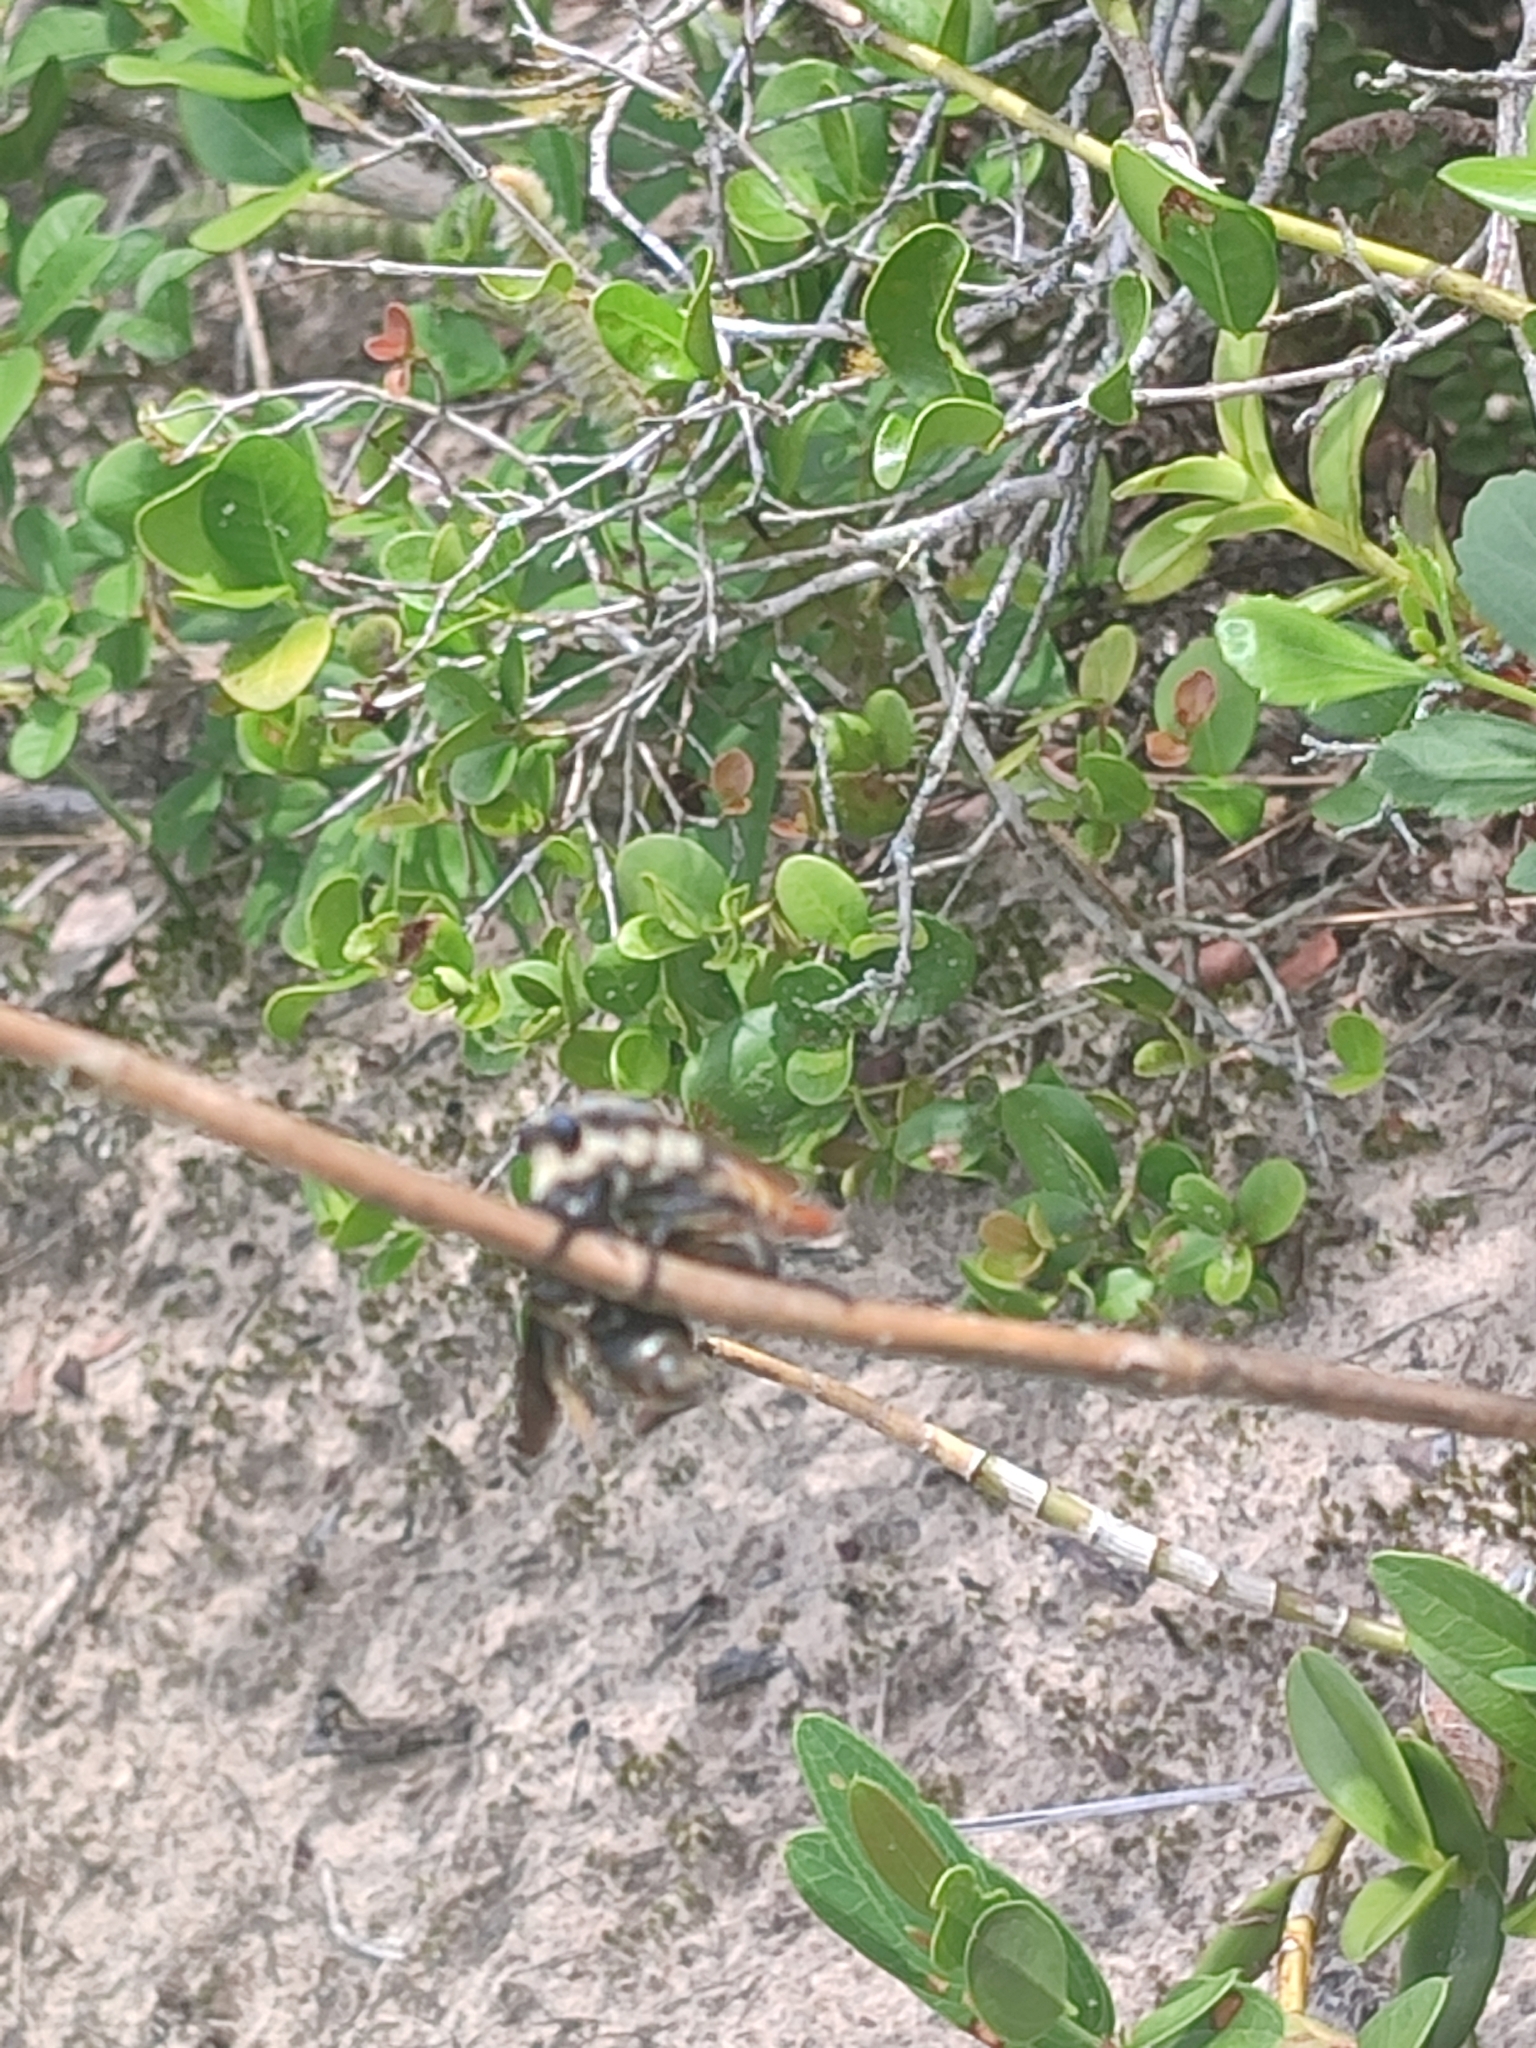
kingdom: Animalia
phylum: Arthropoda
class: Insecta
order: Diptera
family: Asilidae
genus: Eccritosia
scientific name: Eccritosia rubriventris
